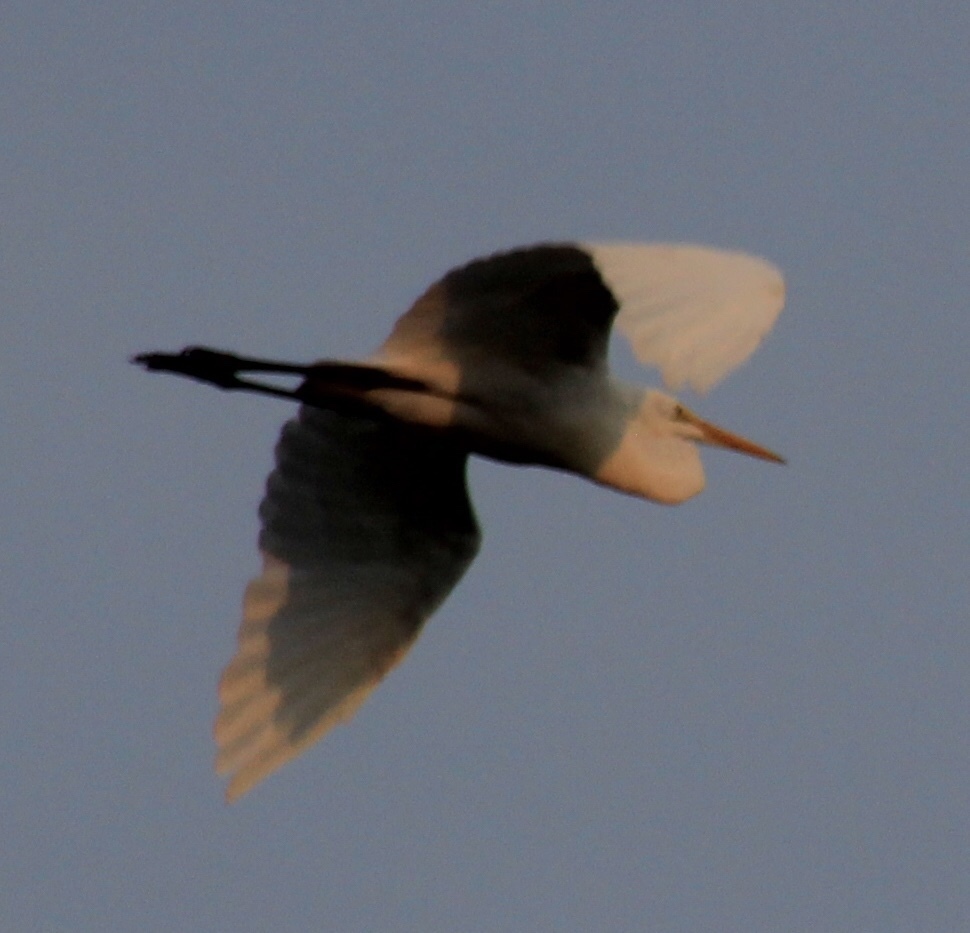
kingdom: Animalia
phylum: Chordata
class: Aves
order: Pelecaniformes
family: Ardeidae
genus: Ardea
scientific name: Ardea alba
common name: Great egret
